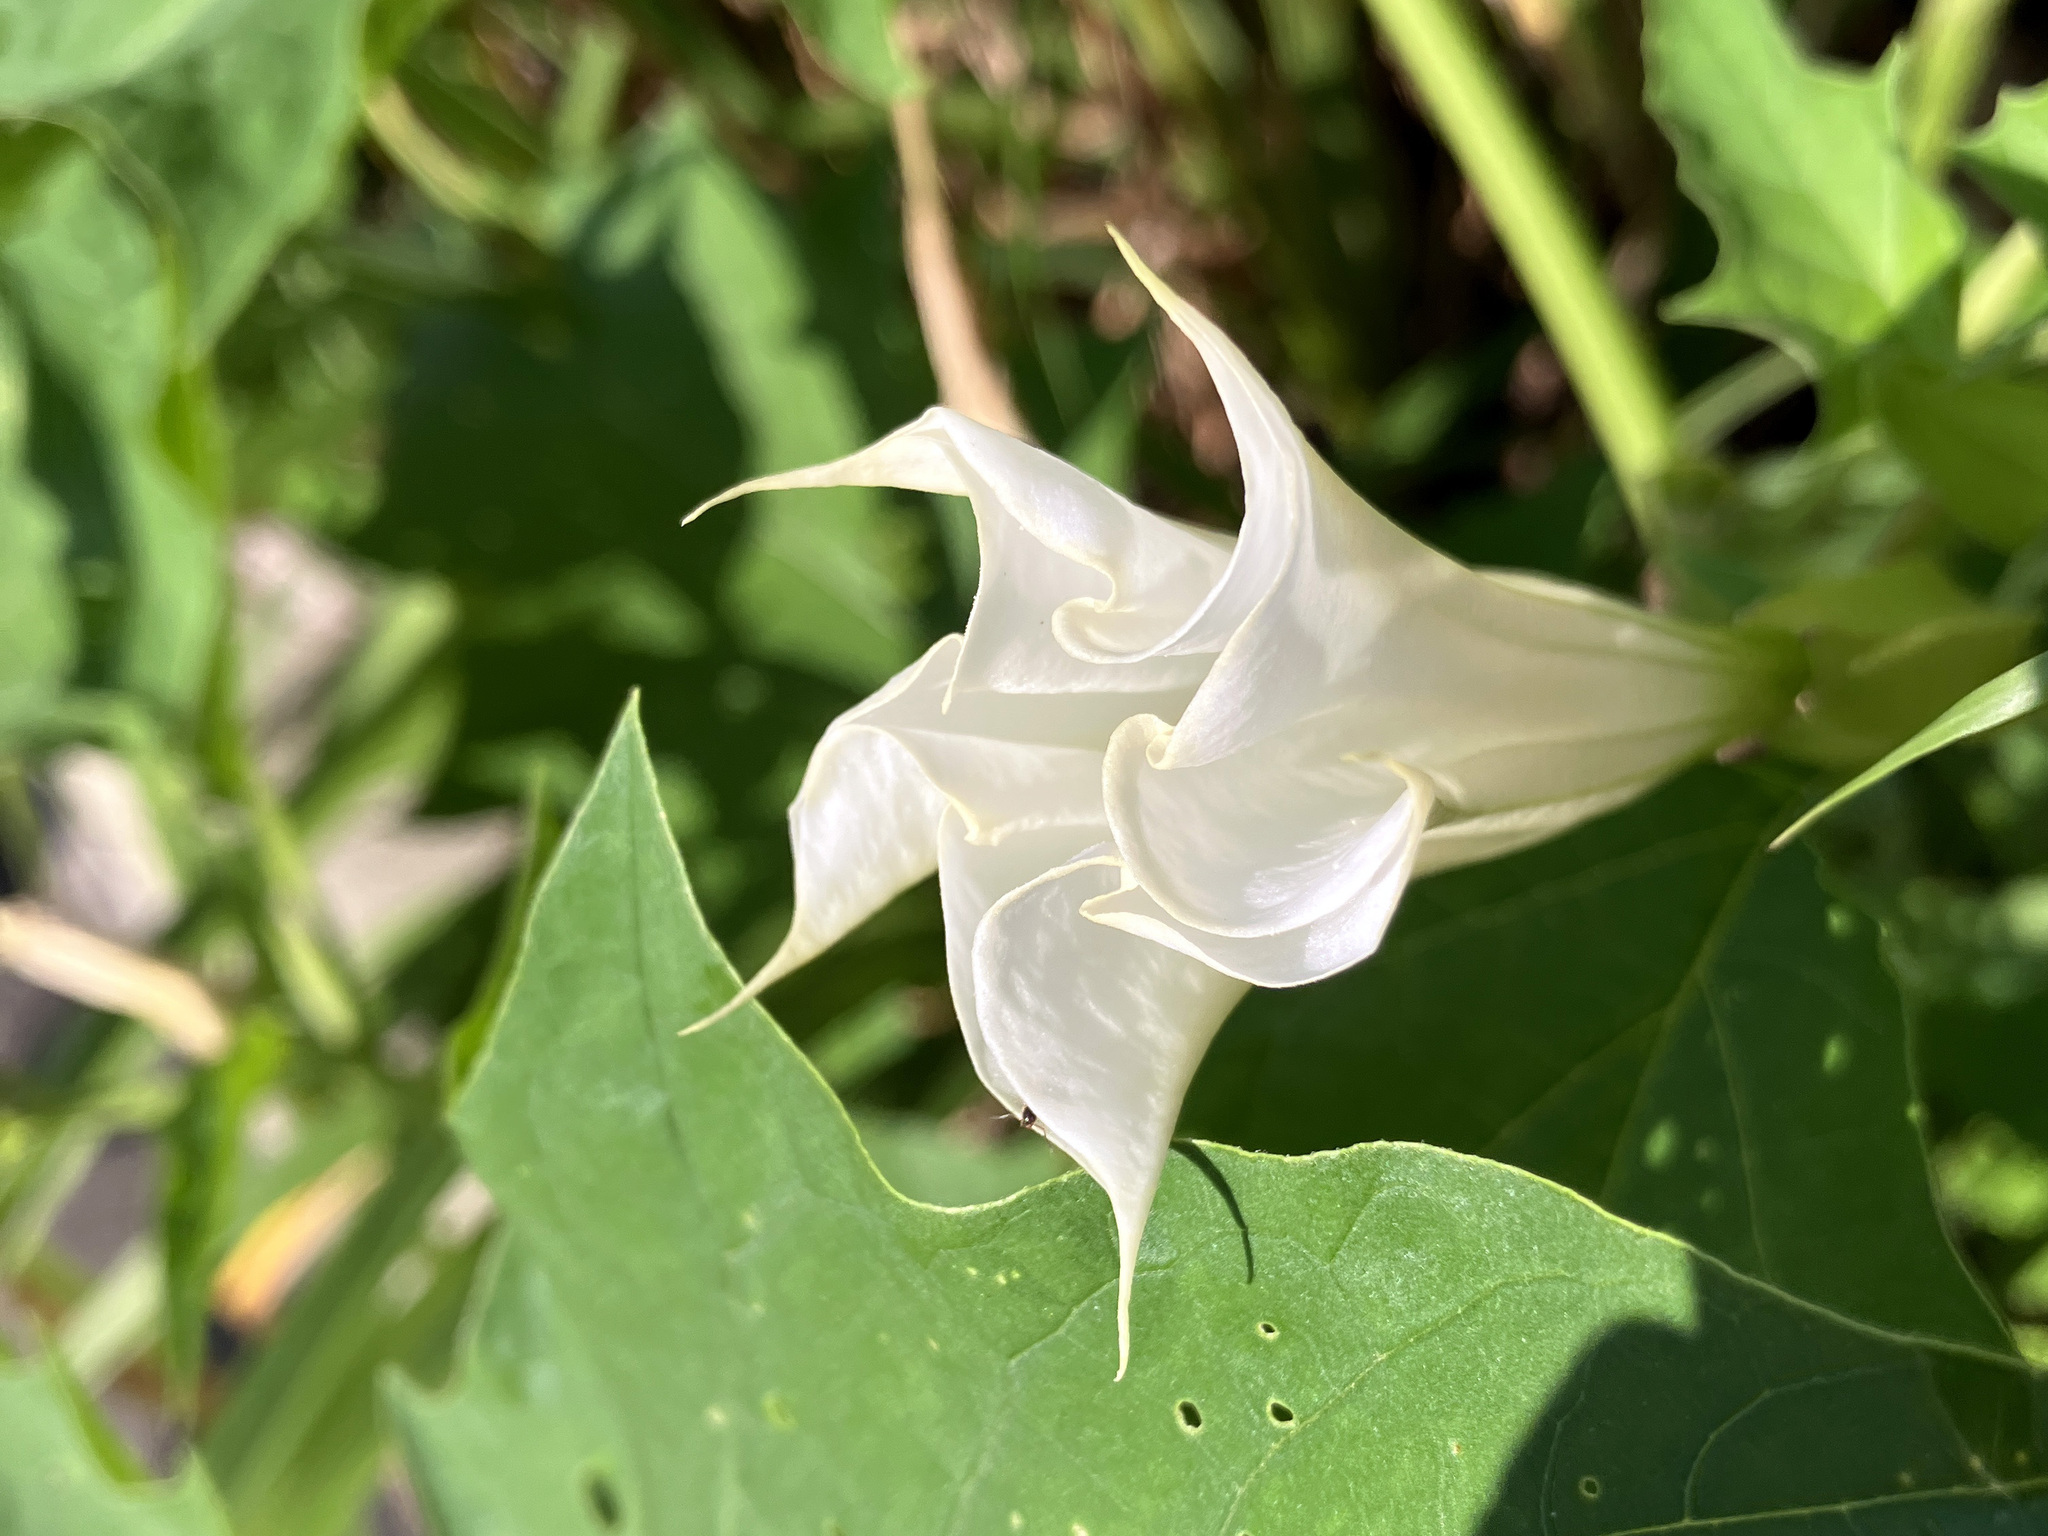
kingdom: Plantae
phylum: Tracheophyta
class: Magnoliopsida
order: Solanales
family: Solanaceae
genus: Datura
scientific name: Datura stramonium
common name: Thorn-apple
